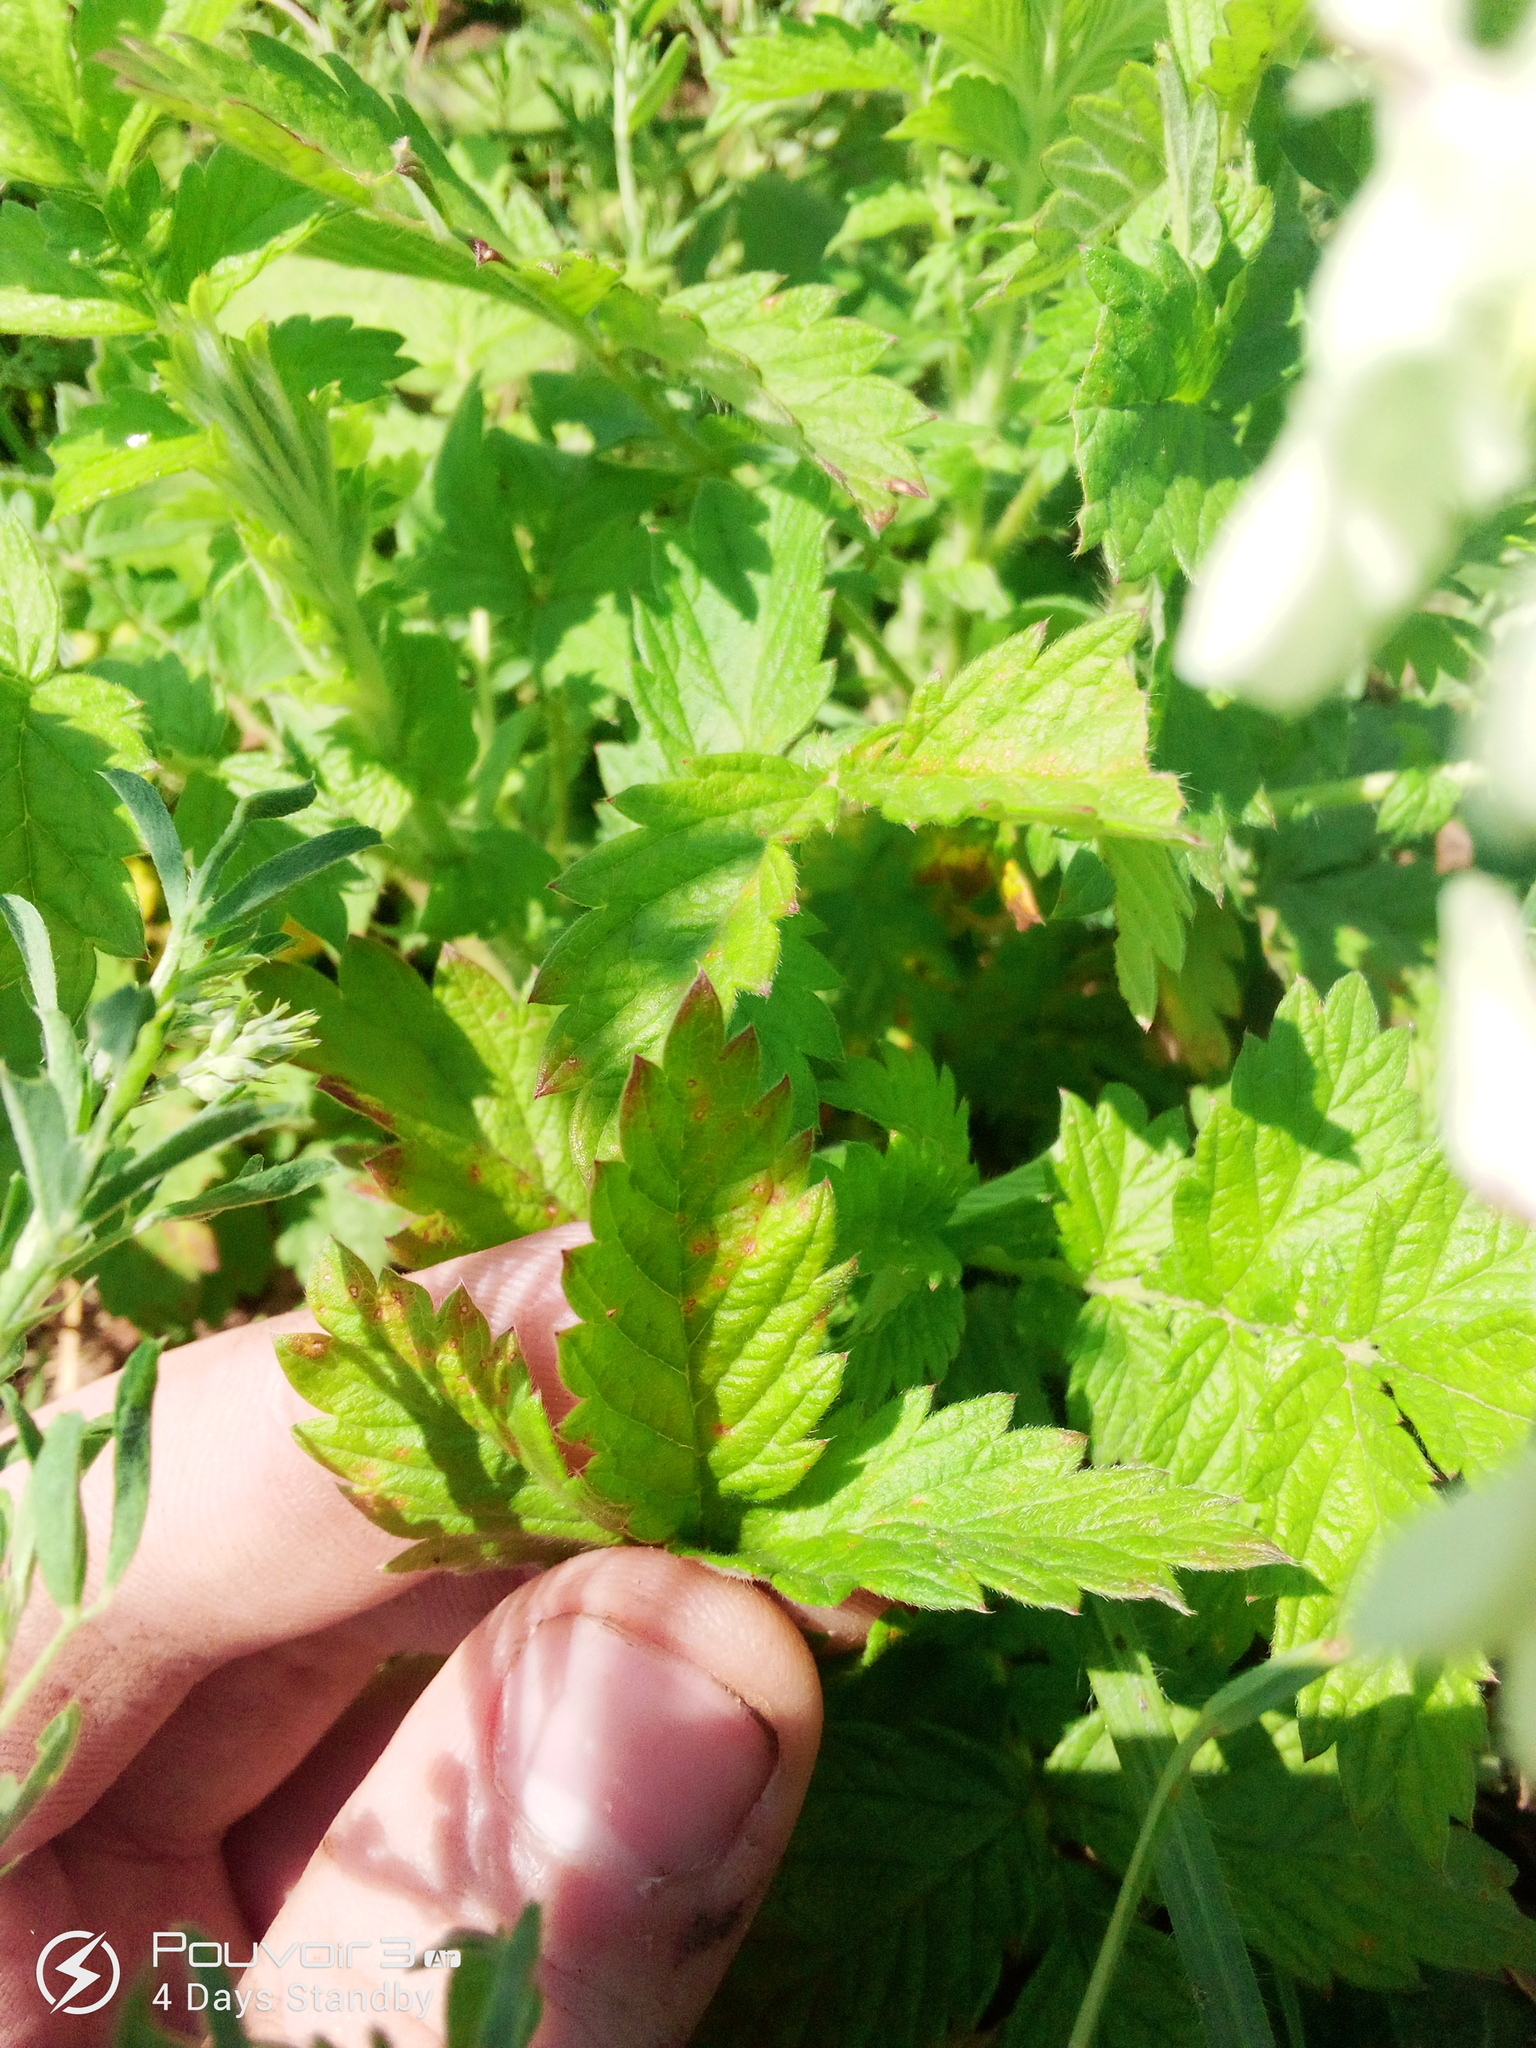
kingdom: Plantae
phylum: Tracheophyta
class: Magnoliopsida
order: Rosales
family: Rosaceae
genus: Agrimonia
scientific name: Agrimonia eupatoria
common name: Agrimony
